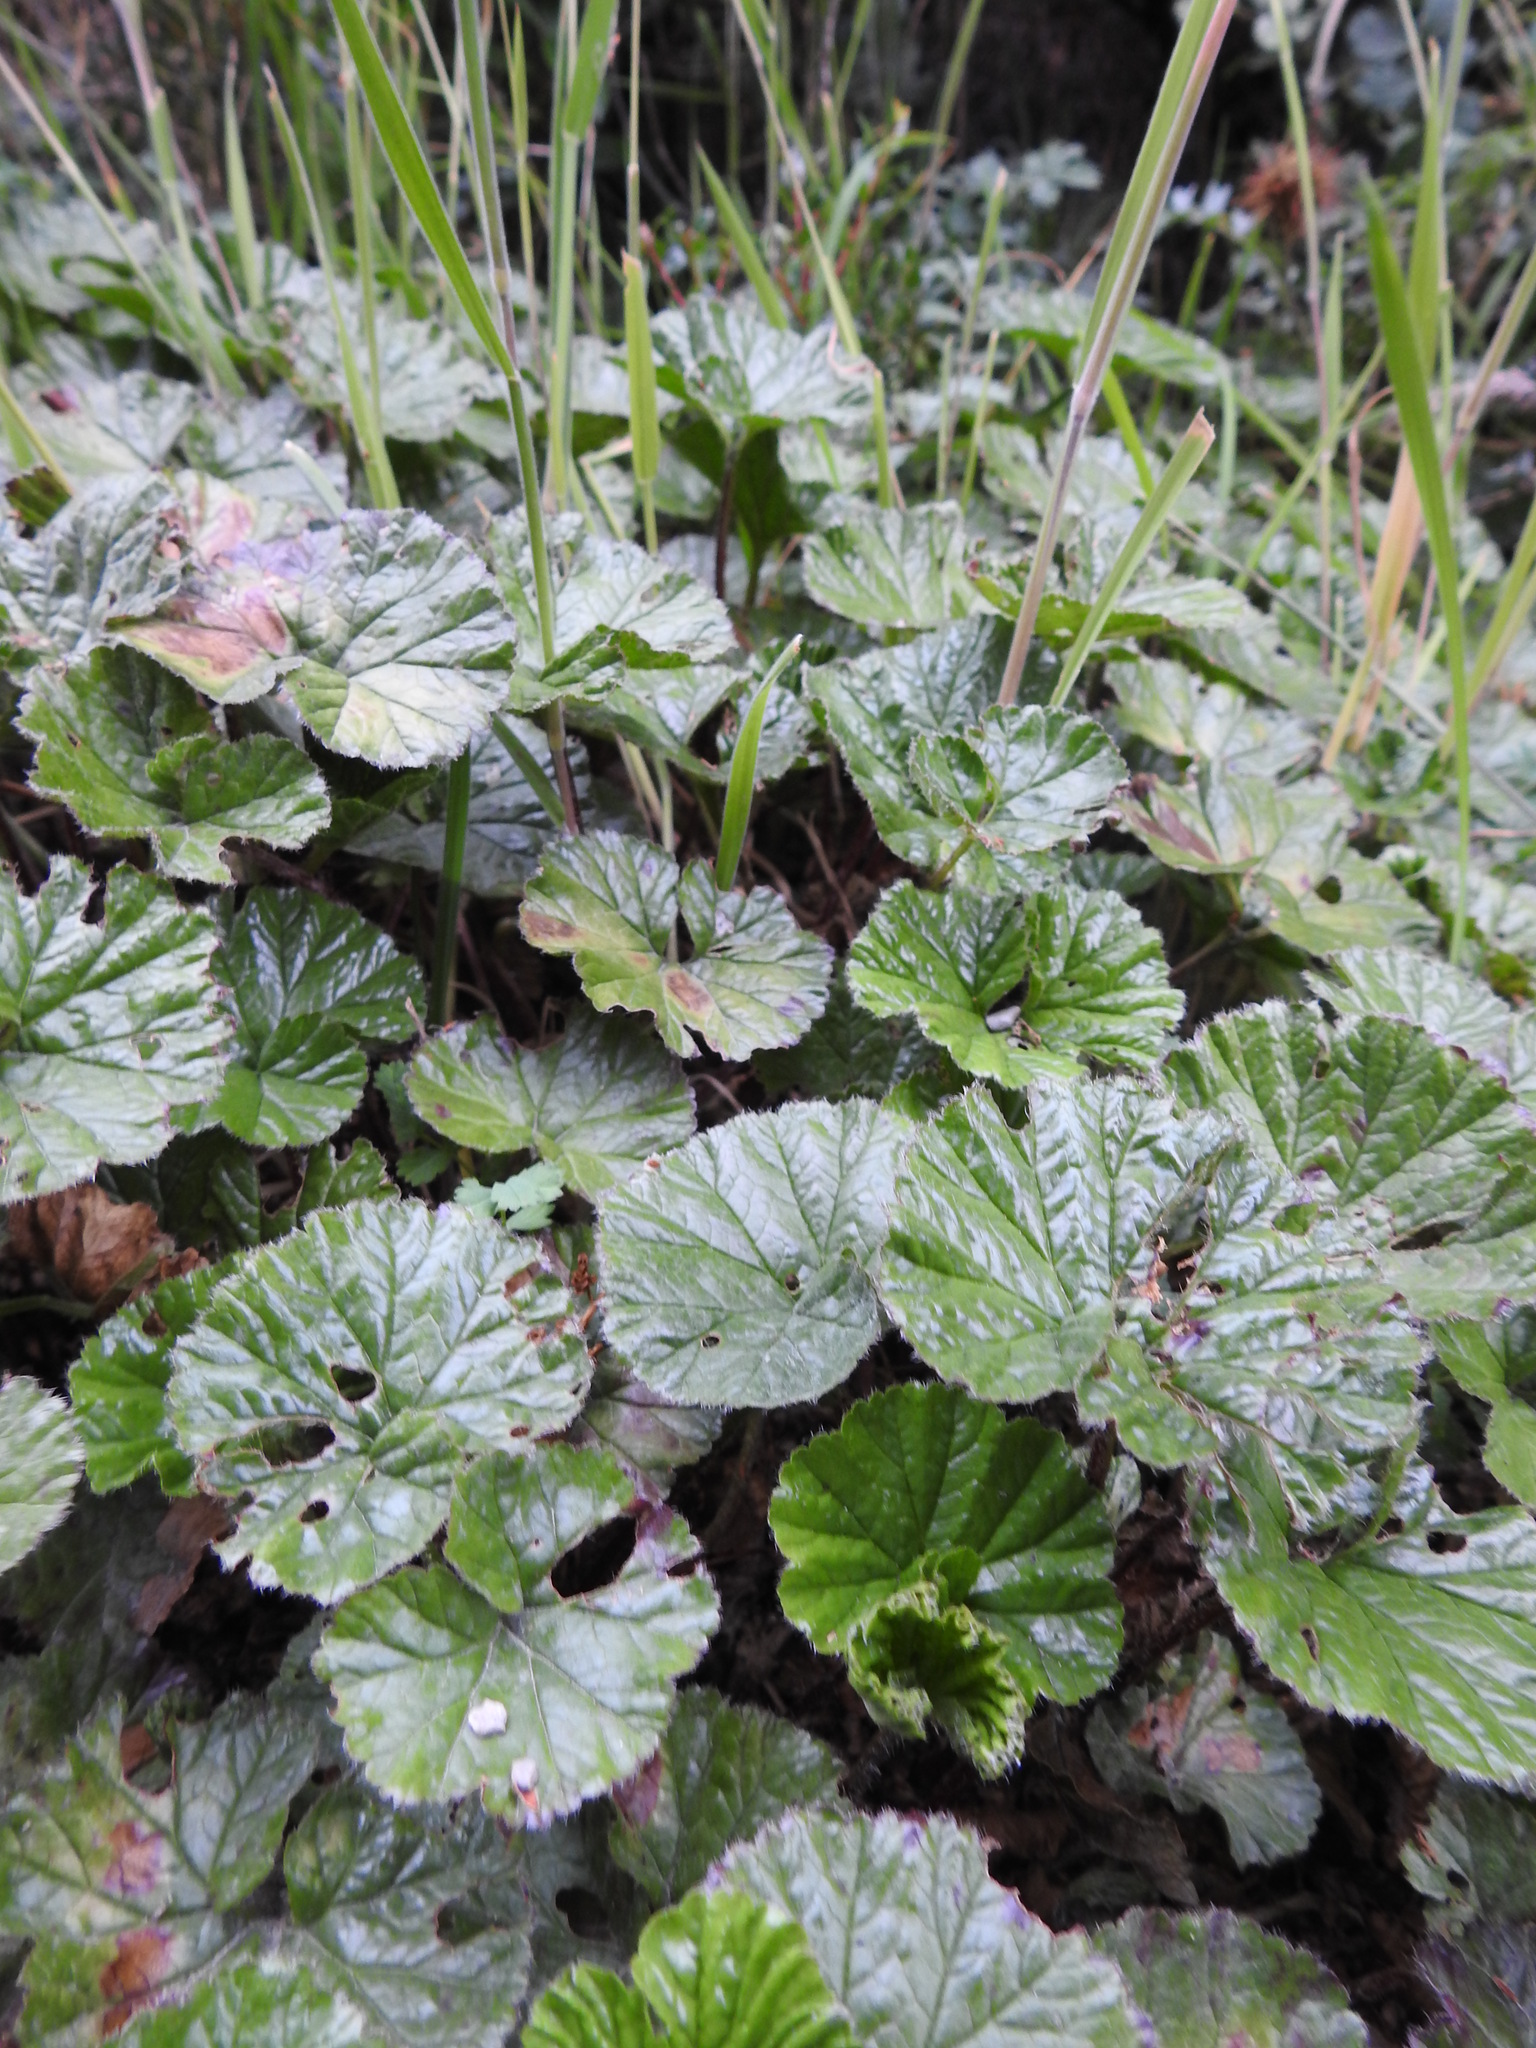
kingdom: Plantae
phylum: Tracheophyta
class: Magnoliopsida
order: Gunnerales
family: Gunneraceae
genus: Gunnera
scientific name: Gunnera magellanica
